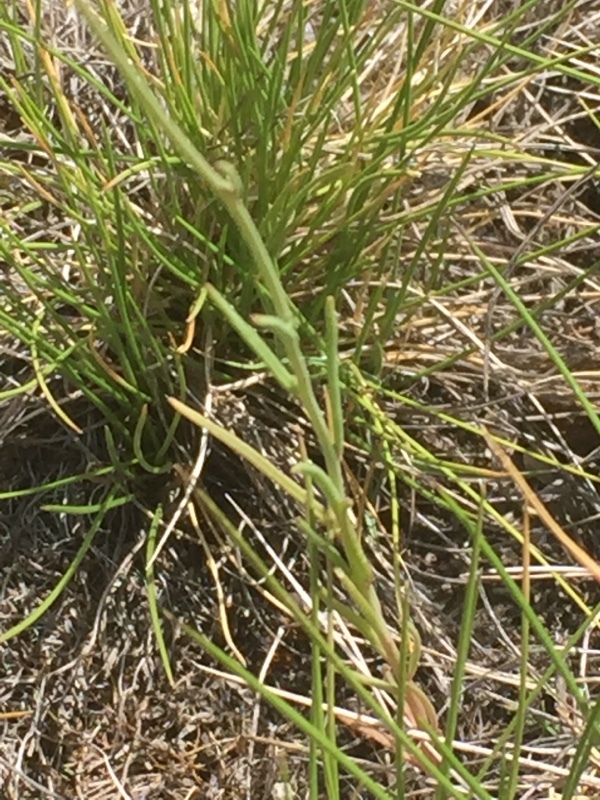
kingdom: Plantae
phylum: Tracheophyta
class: Magnoliopsida
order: Lamiales
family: Plantaginaceae
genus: Linaria
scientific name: Linaria elegans
